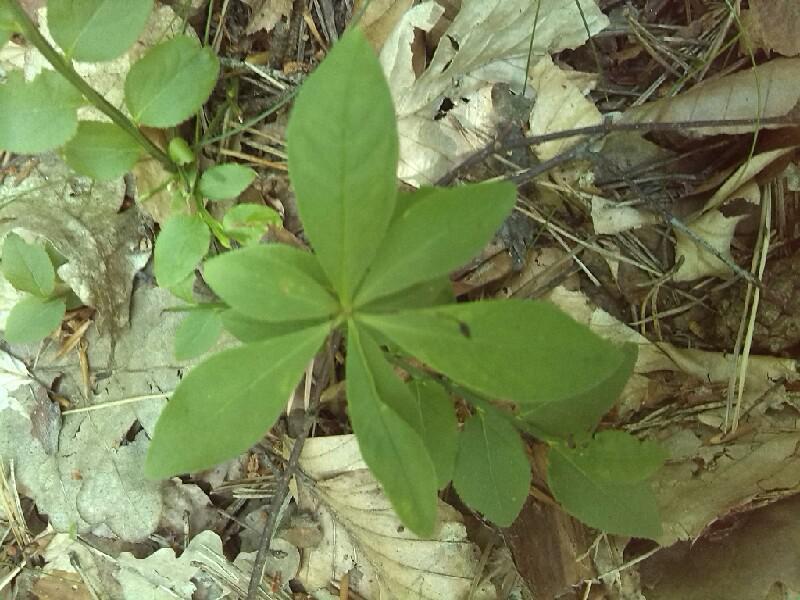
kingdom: Plantae
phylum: Tracheophyta
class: Magnoliopsida
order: Ericales
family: Primulaceae
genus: Lysimachia
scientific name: Lysimachia europaea
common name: Arctic starflower
